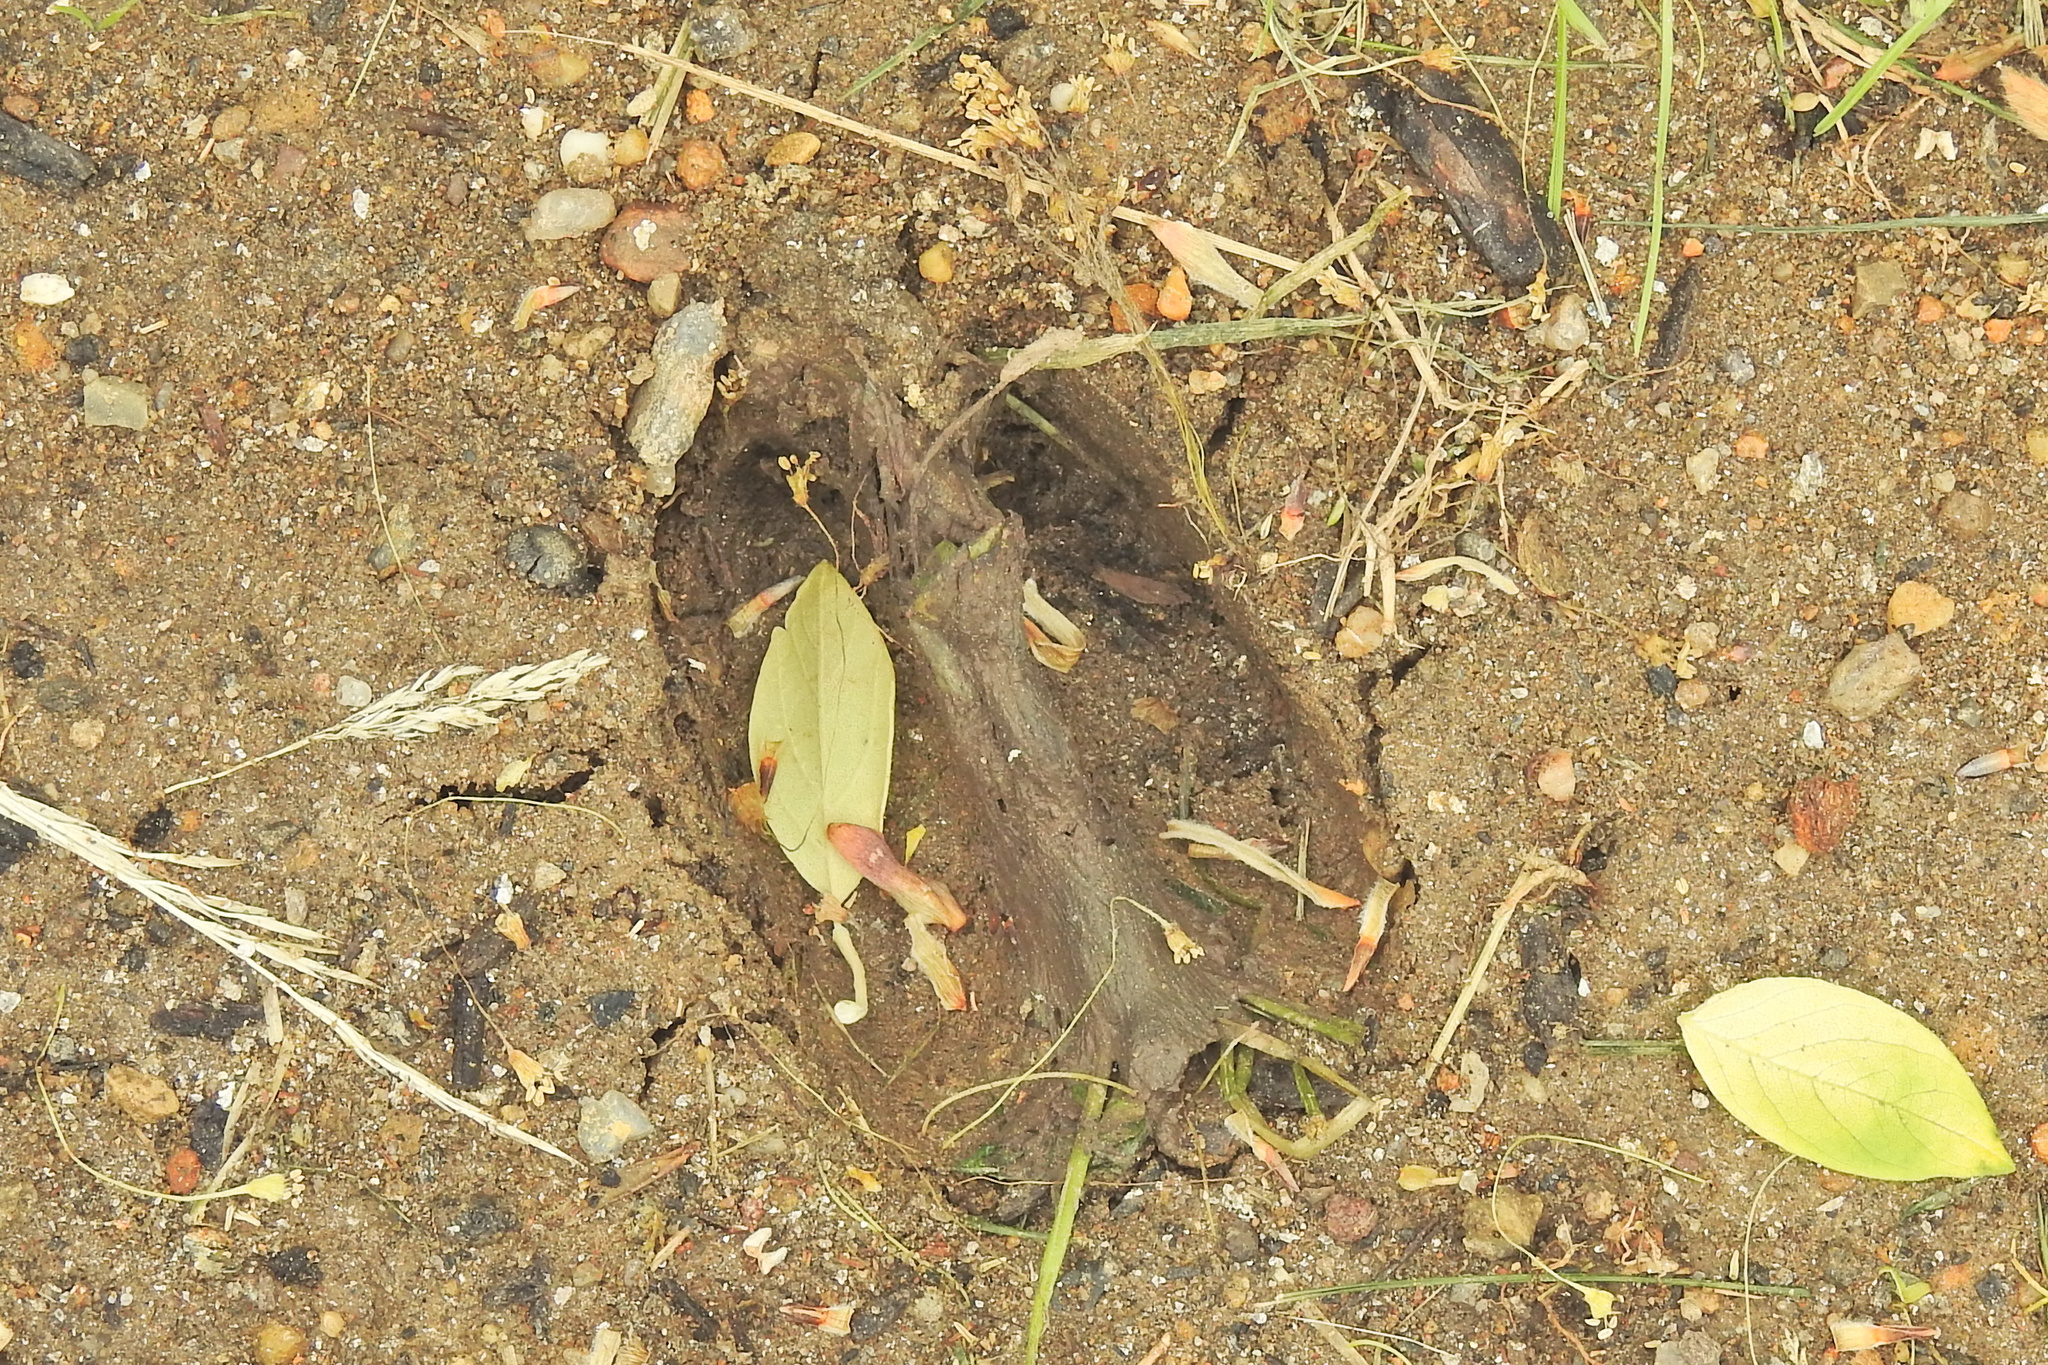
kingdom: Animalia
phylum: Chordata
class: Mammalia
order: Artiodactyla
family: Cervidae
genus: Odocoileus
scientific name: Odocoileus virginianus
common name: White-tailed deer
